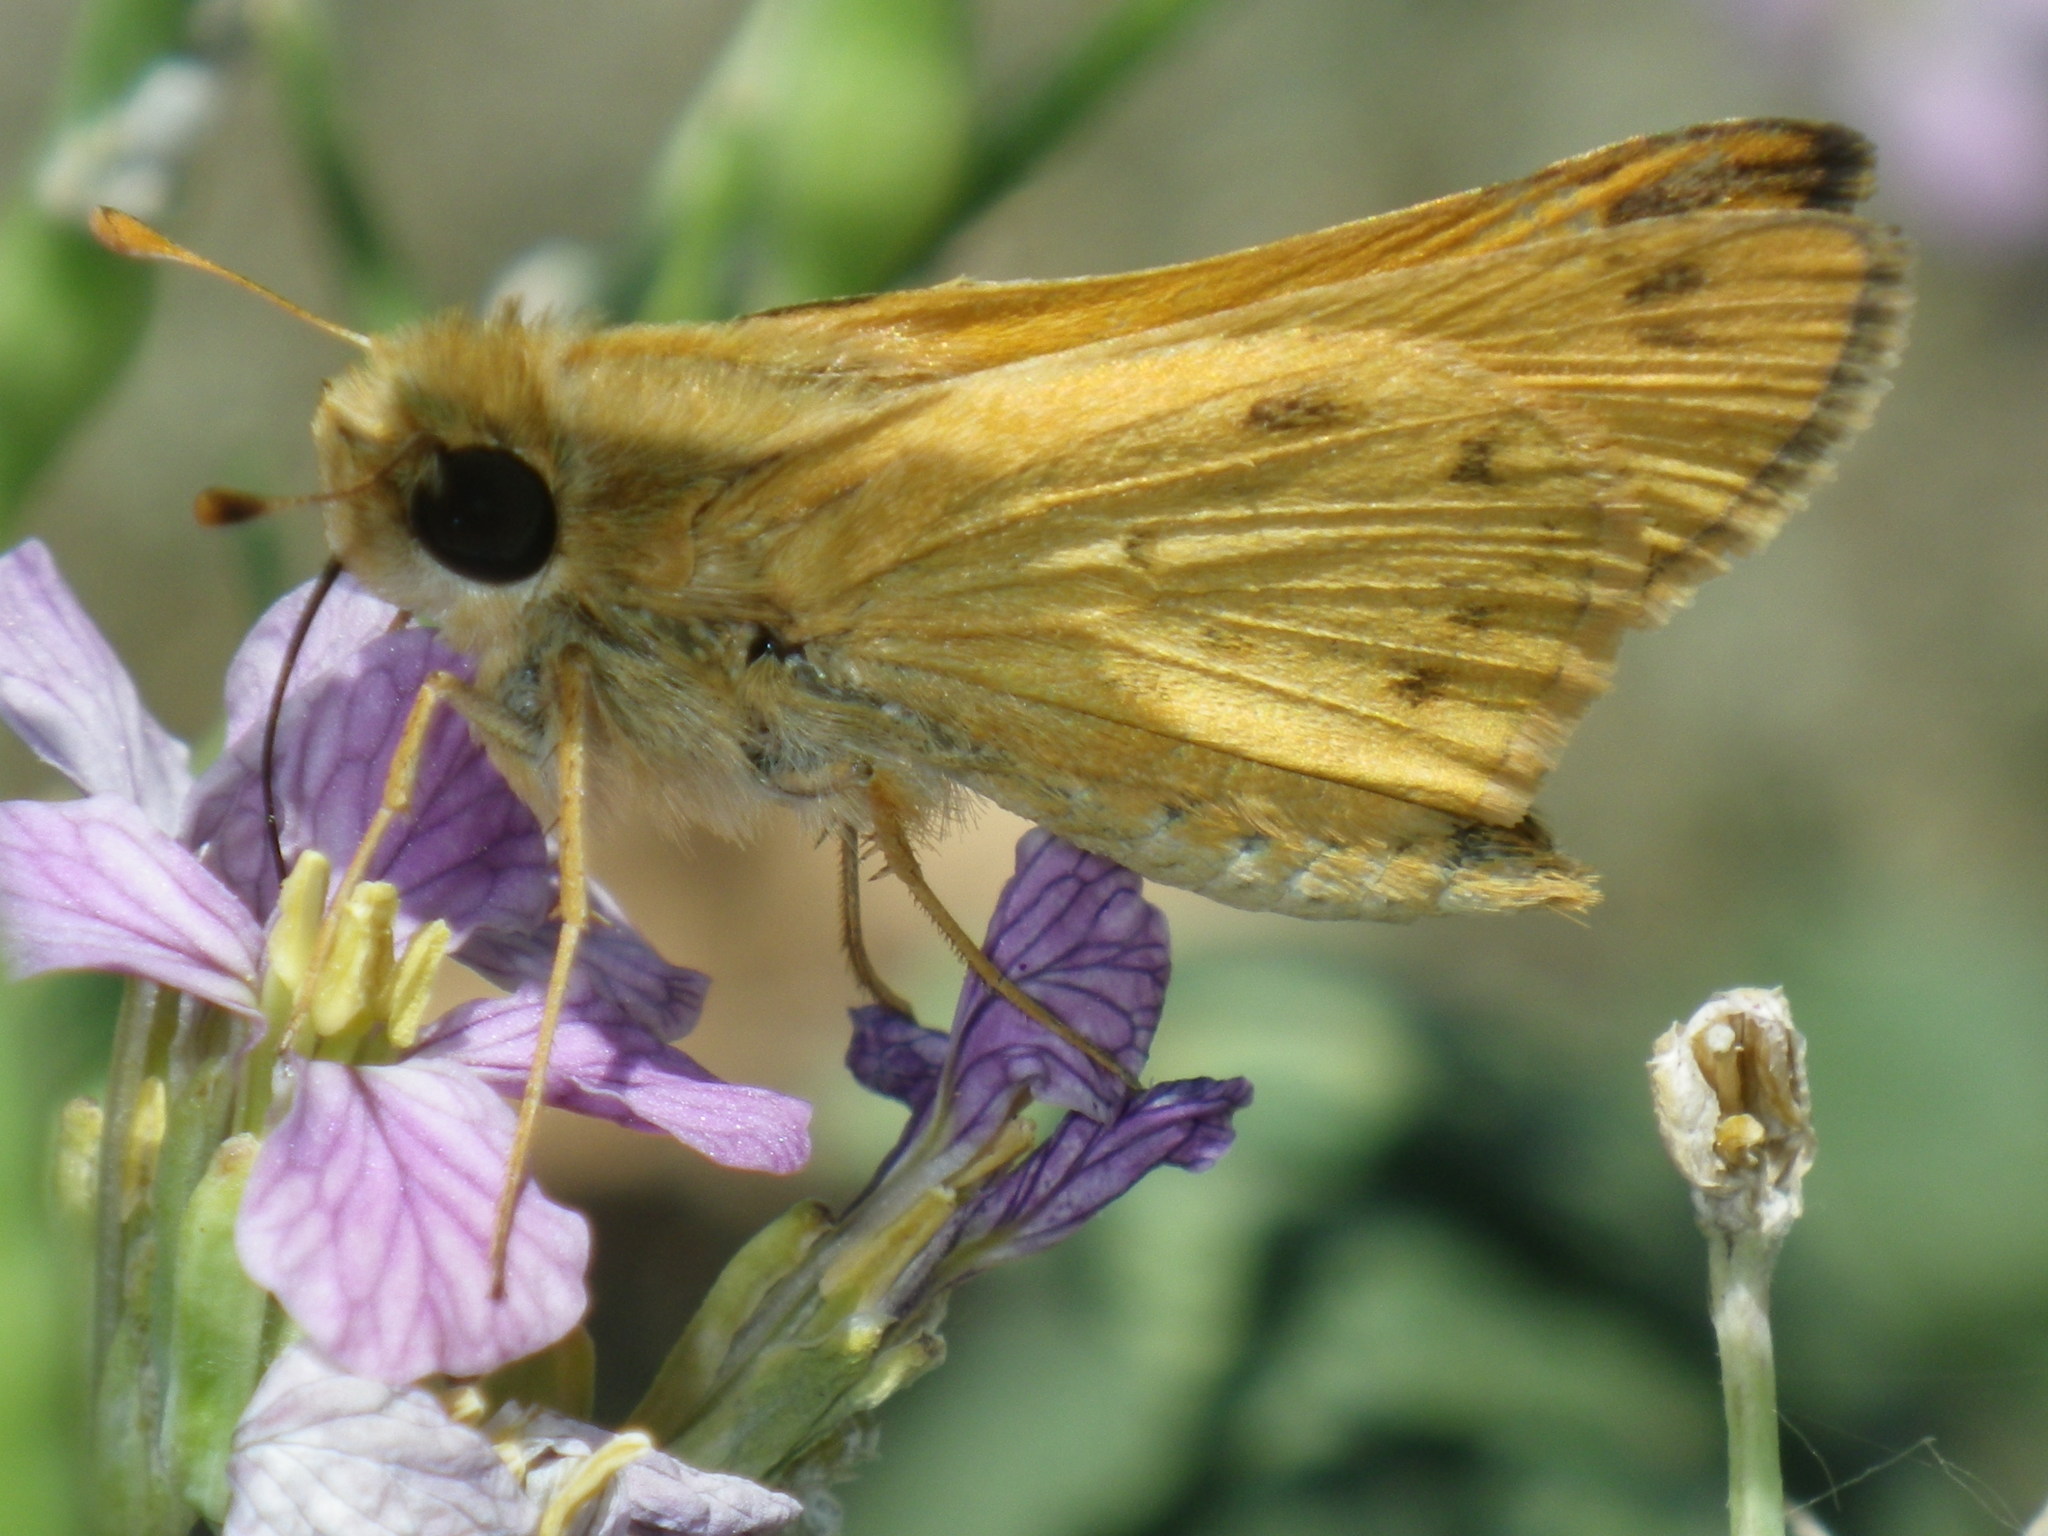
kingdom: Animalia
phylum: Arthropoda
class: Insecta
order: Lepidoptera
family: Hesperiidae
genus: Hylephila
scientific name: Hylephila phyleus
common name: Fiery skipper
